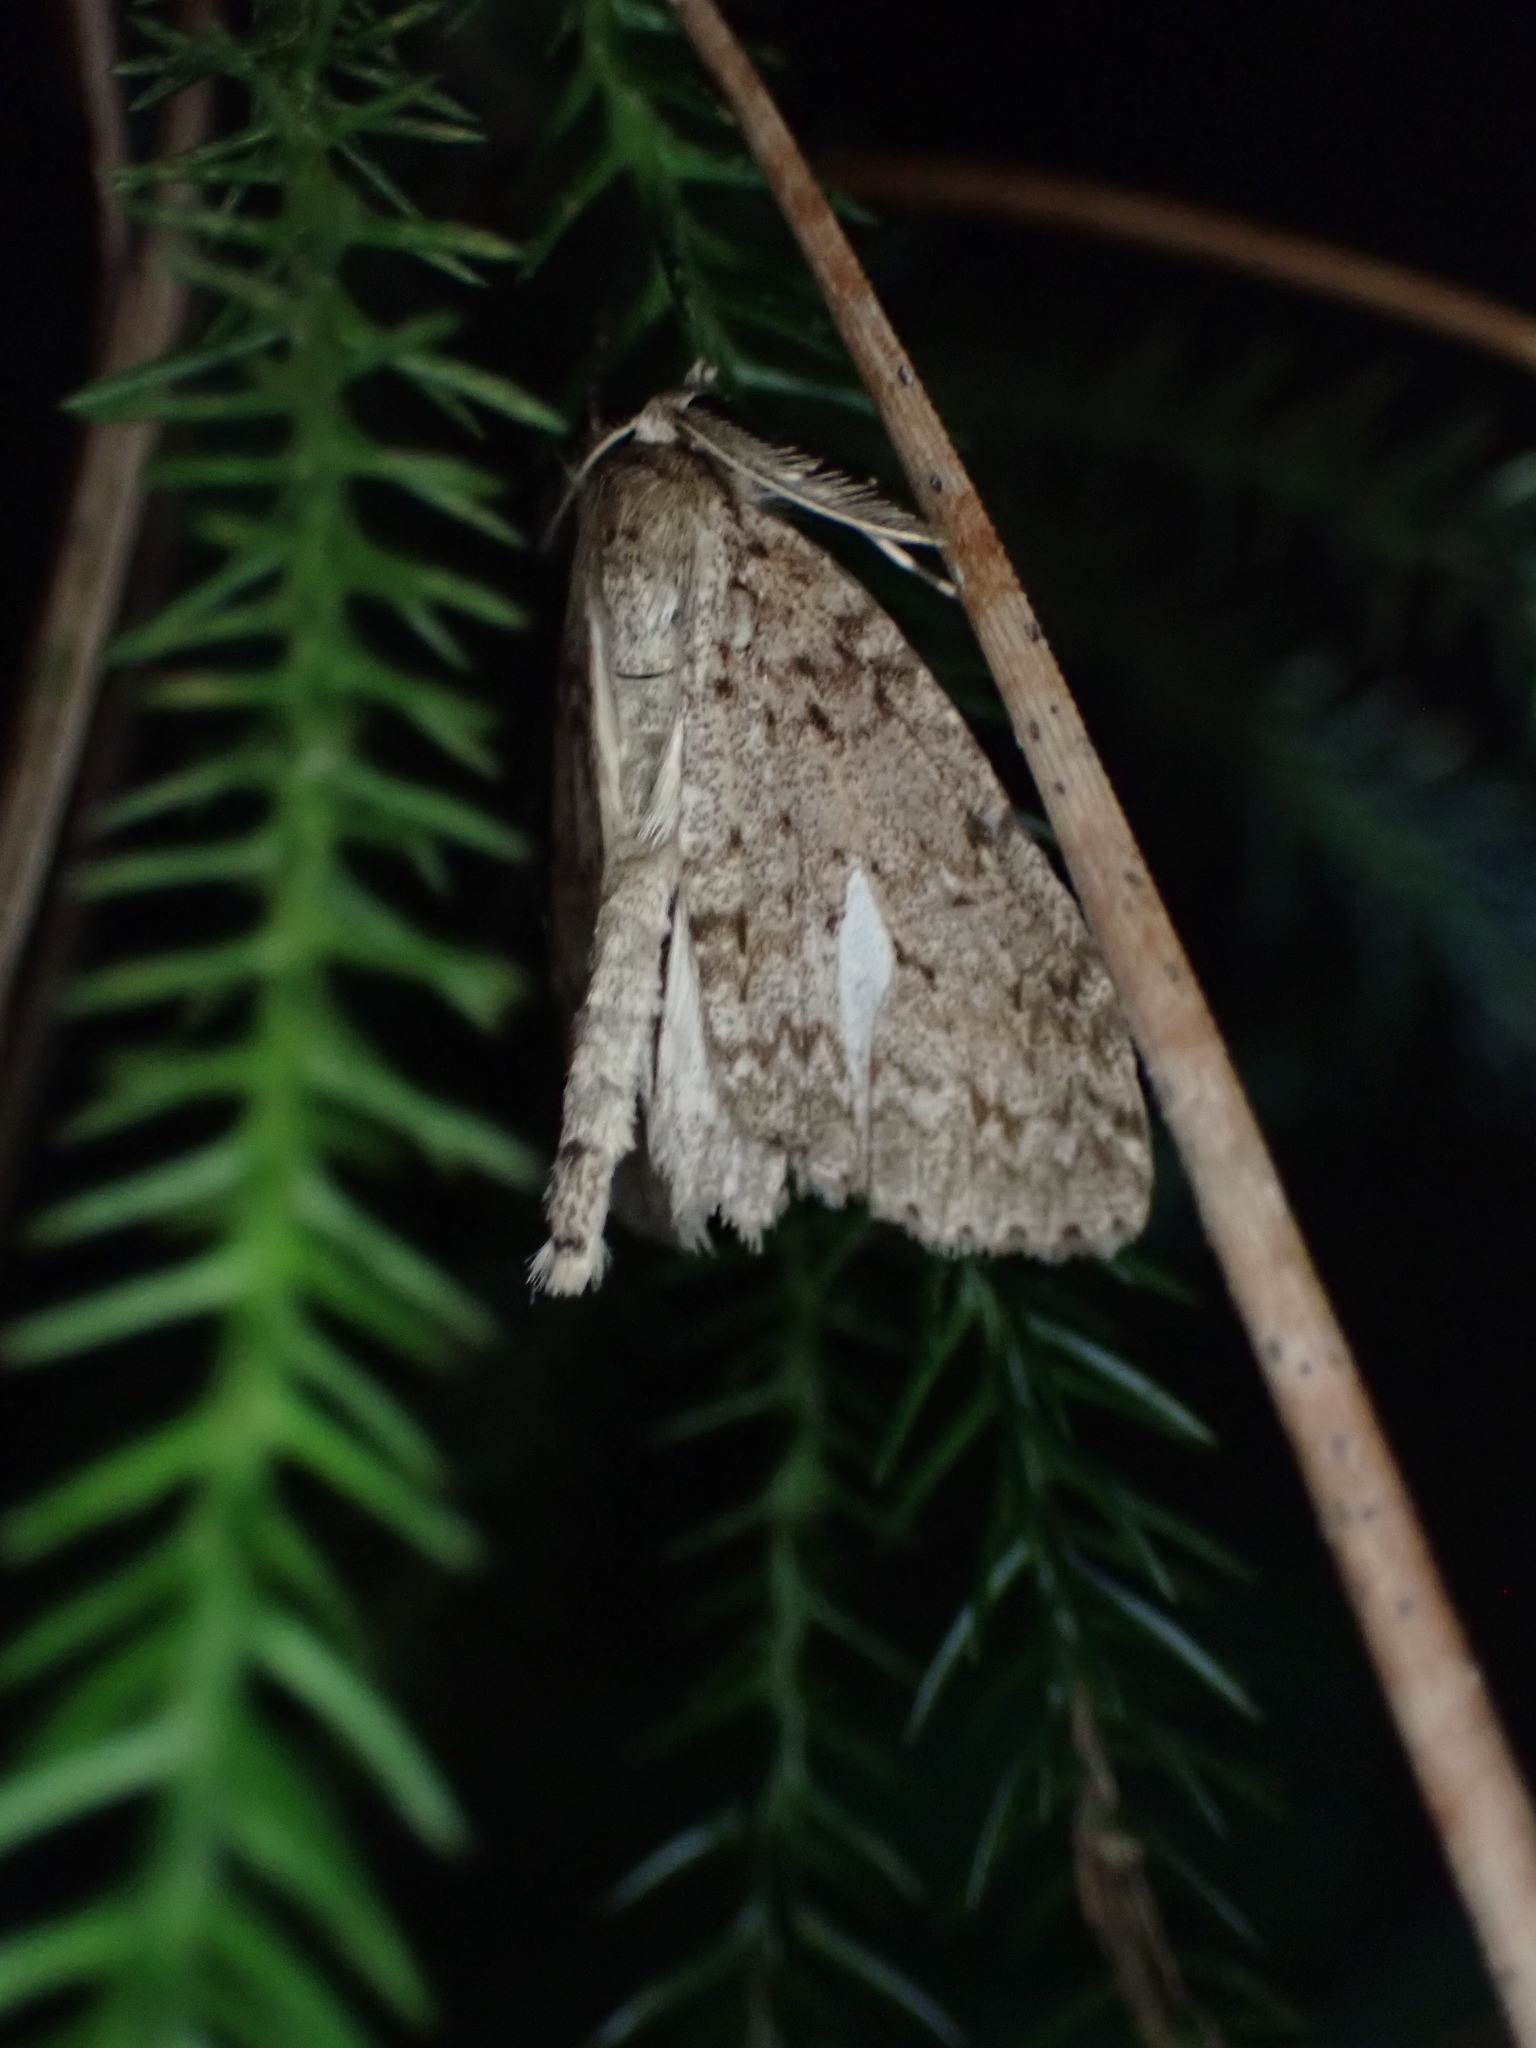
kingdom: Animalia
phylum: Arthropoda
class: Insecta
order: Lepidoptera
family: Geometridae
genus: Pseudocoremia
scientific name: Pseudocoremia fenerata
